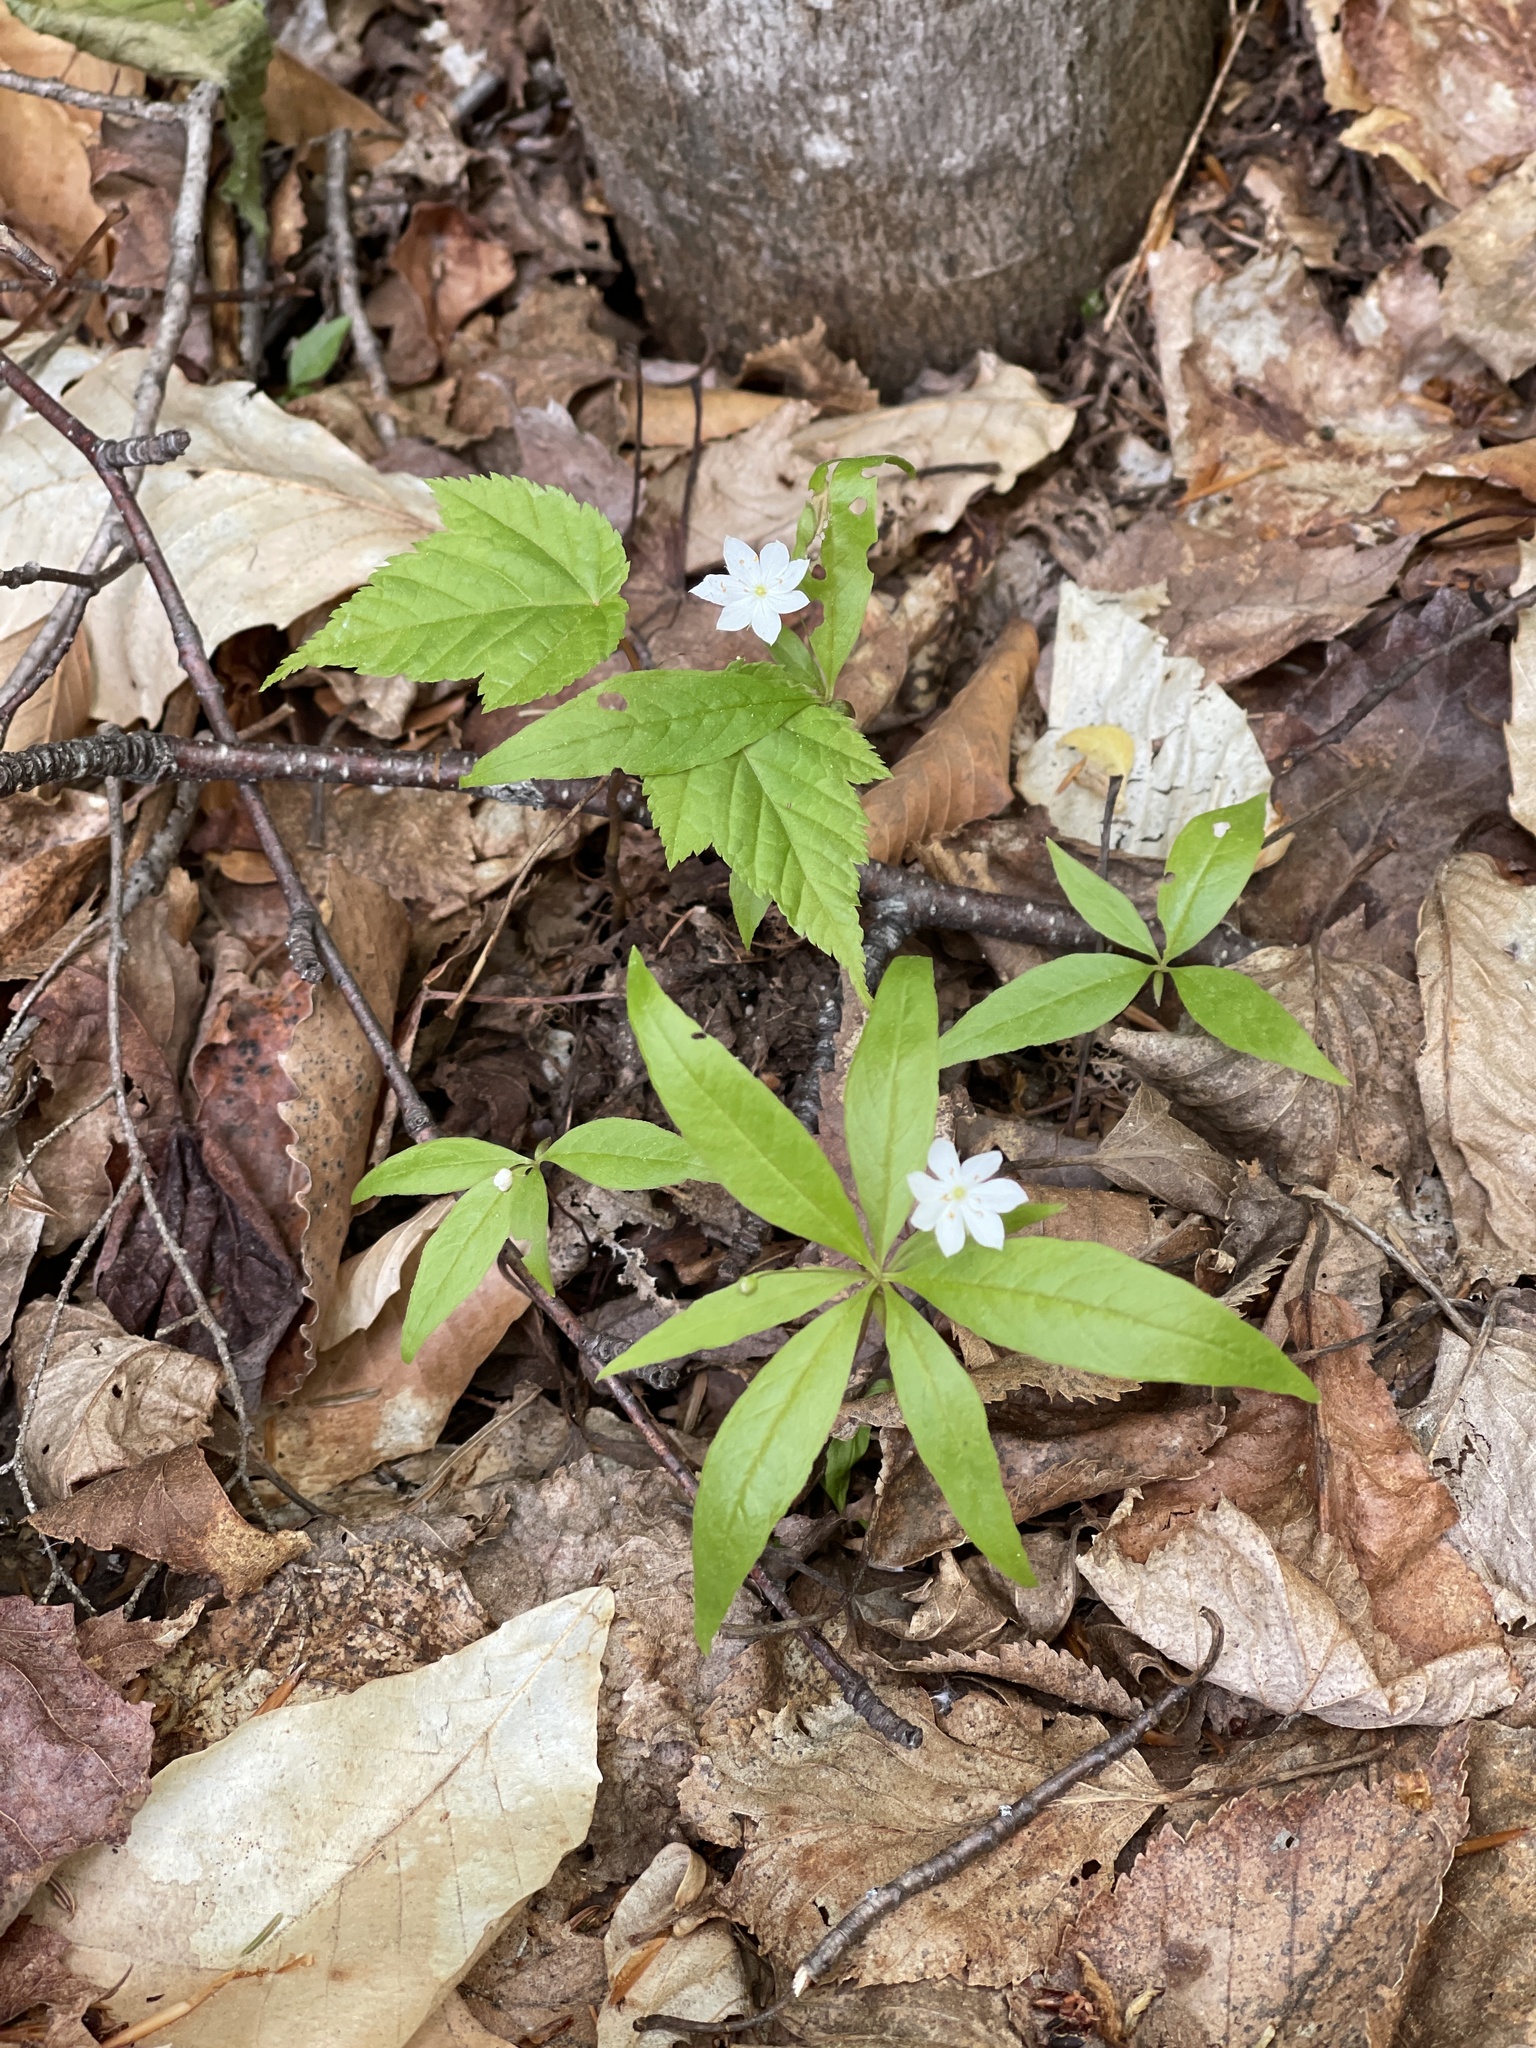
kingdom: Plantae
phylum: Tracheophyta
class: Magnoliopsida
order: Ericales
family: Primulaceae
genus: Lysimachia
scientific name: Lysimachia borealis
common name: American starflower
